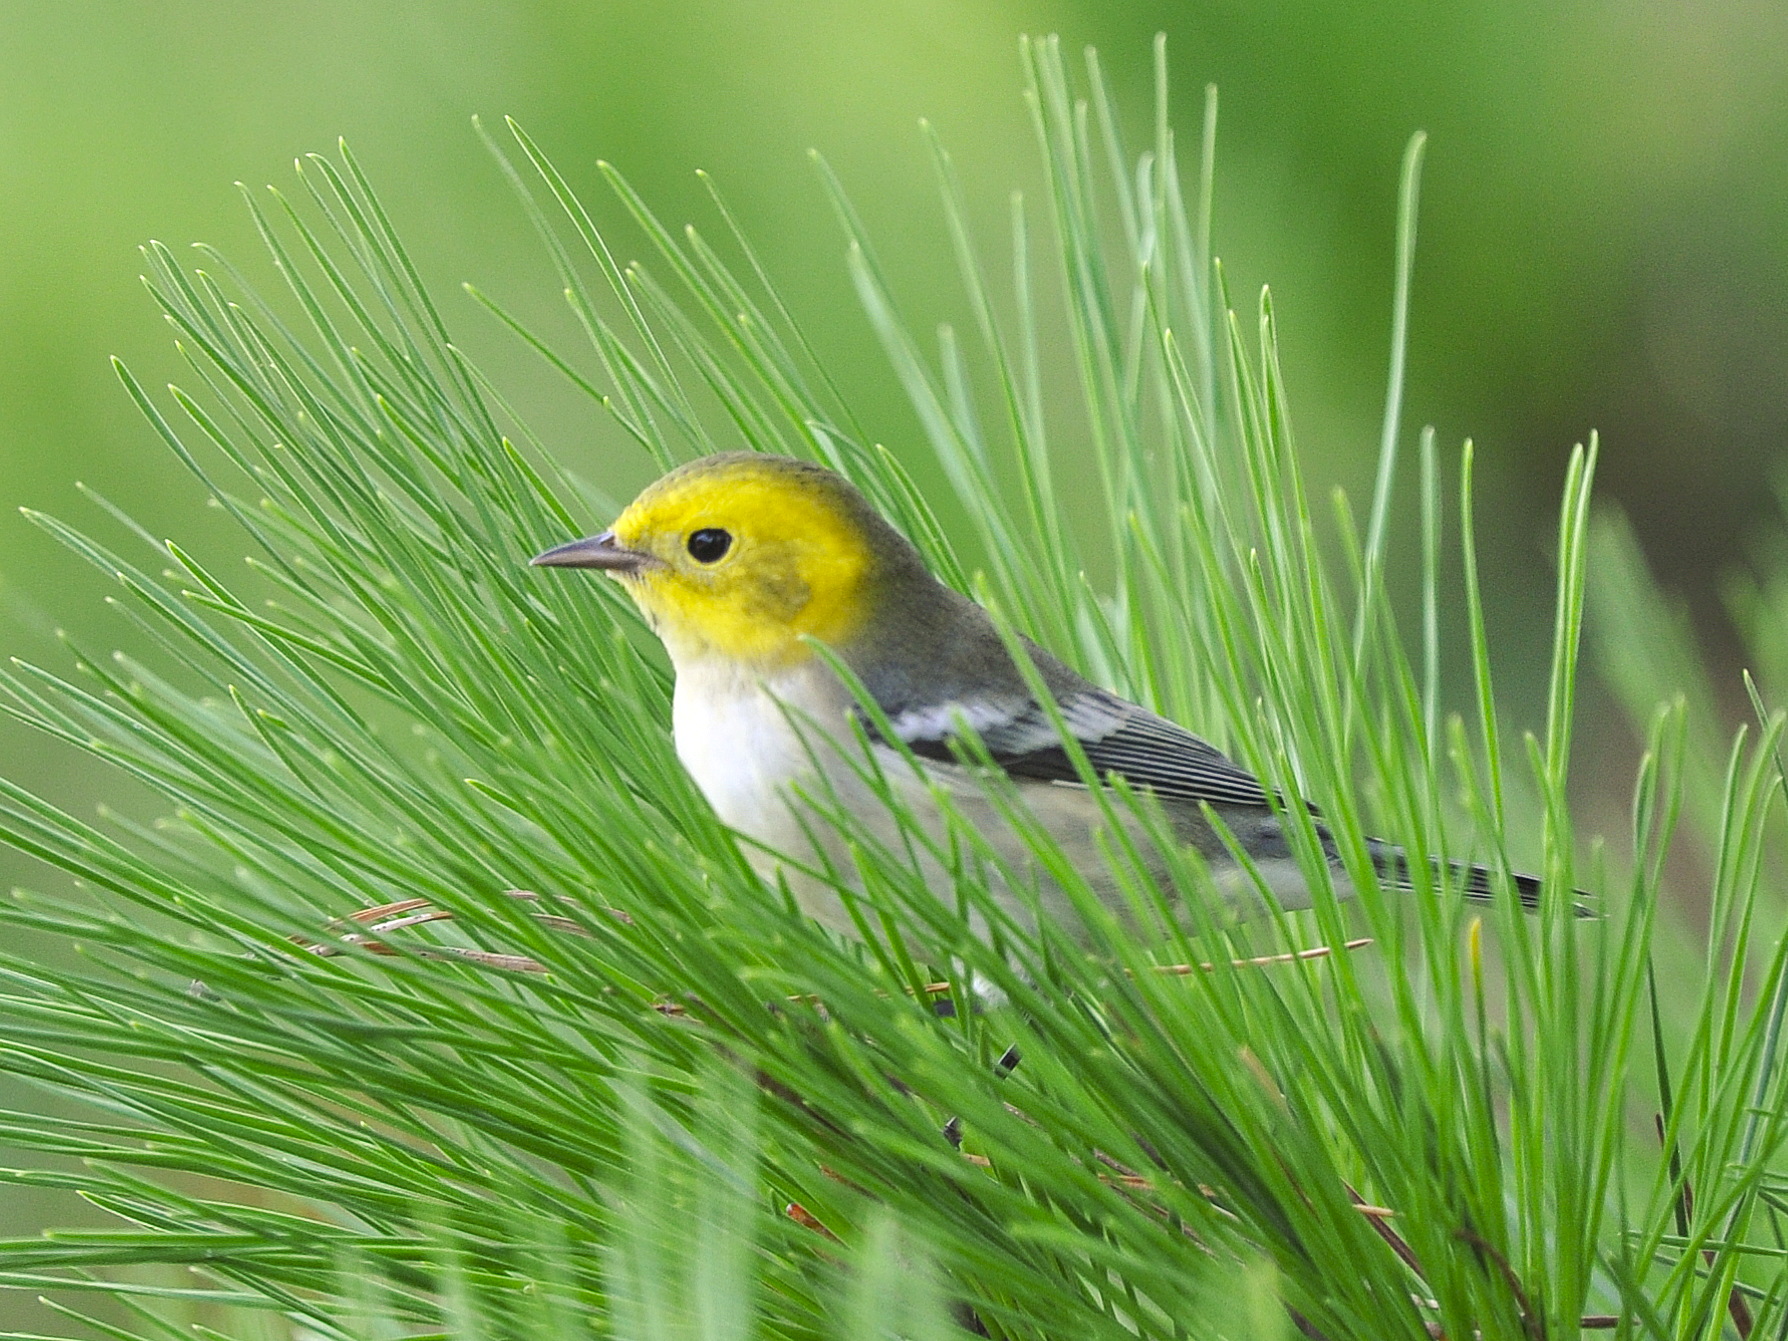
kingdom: Animalia
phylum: Chordata
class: Aves
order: Passeriformes
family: Parulidae
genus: Setophaga
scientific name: Setophaga occidentalis
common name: Hermit warbler
